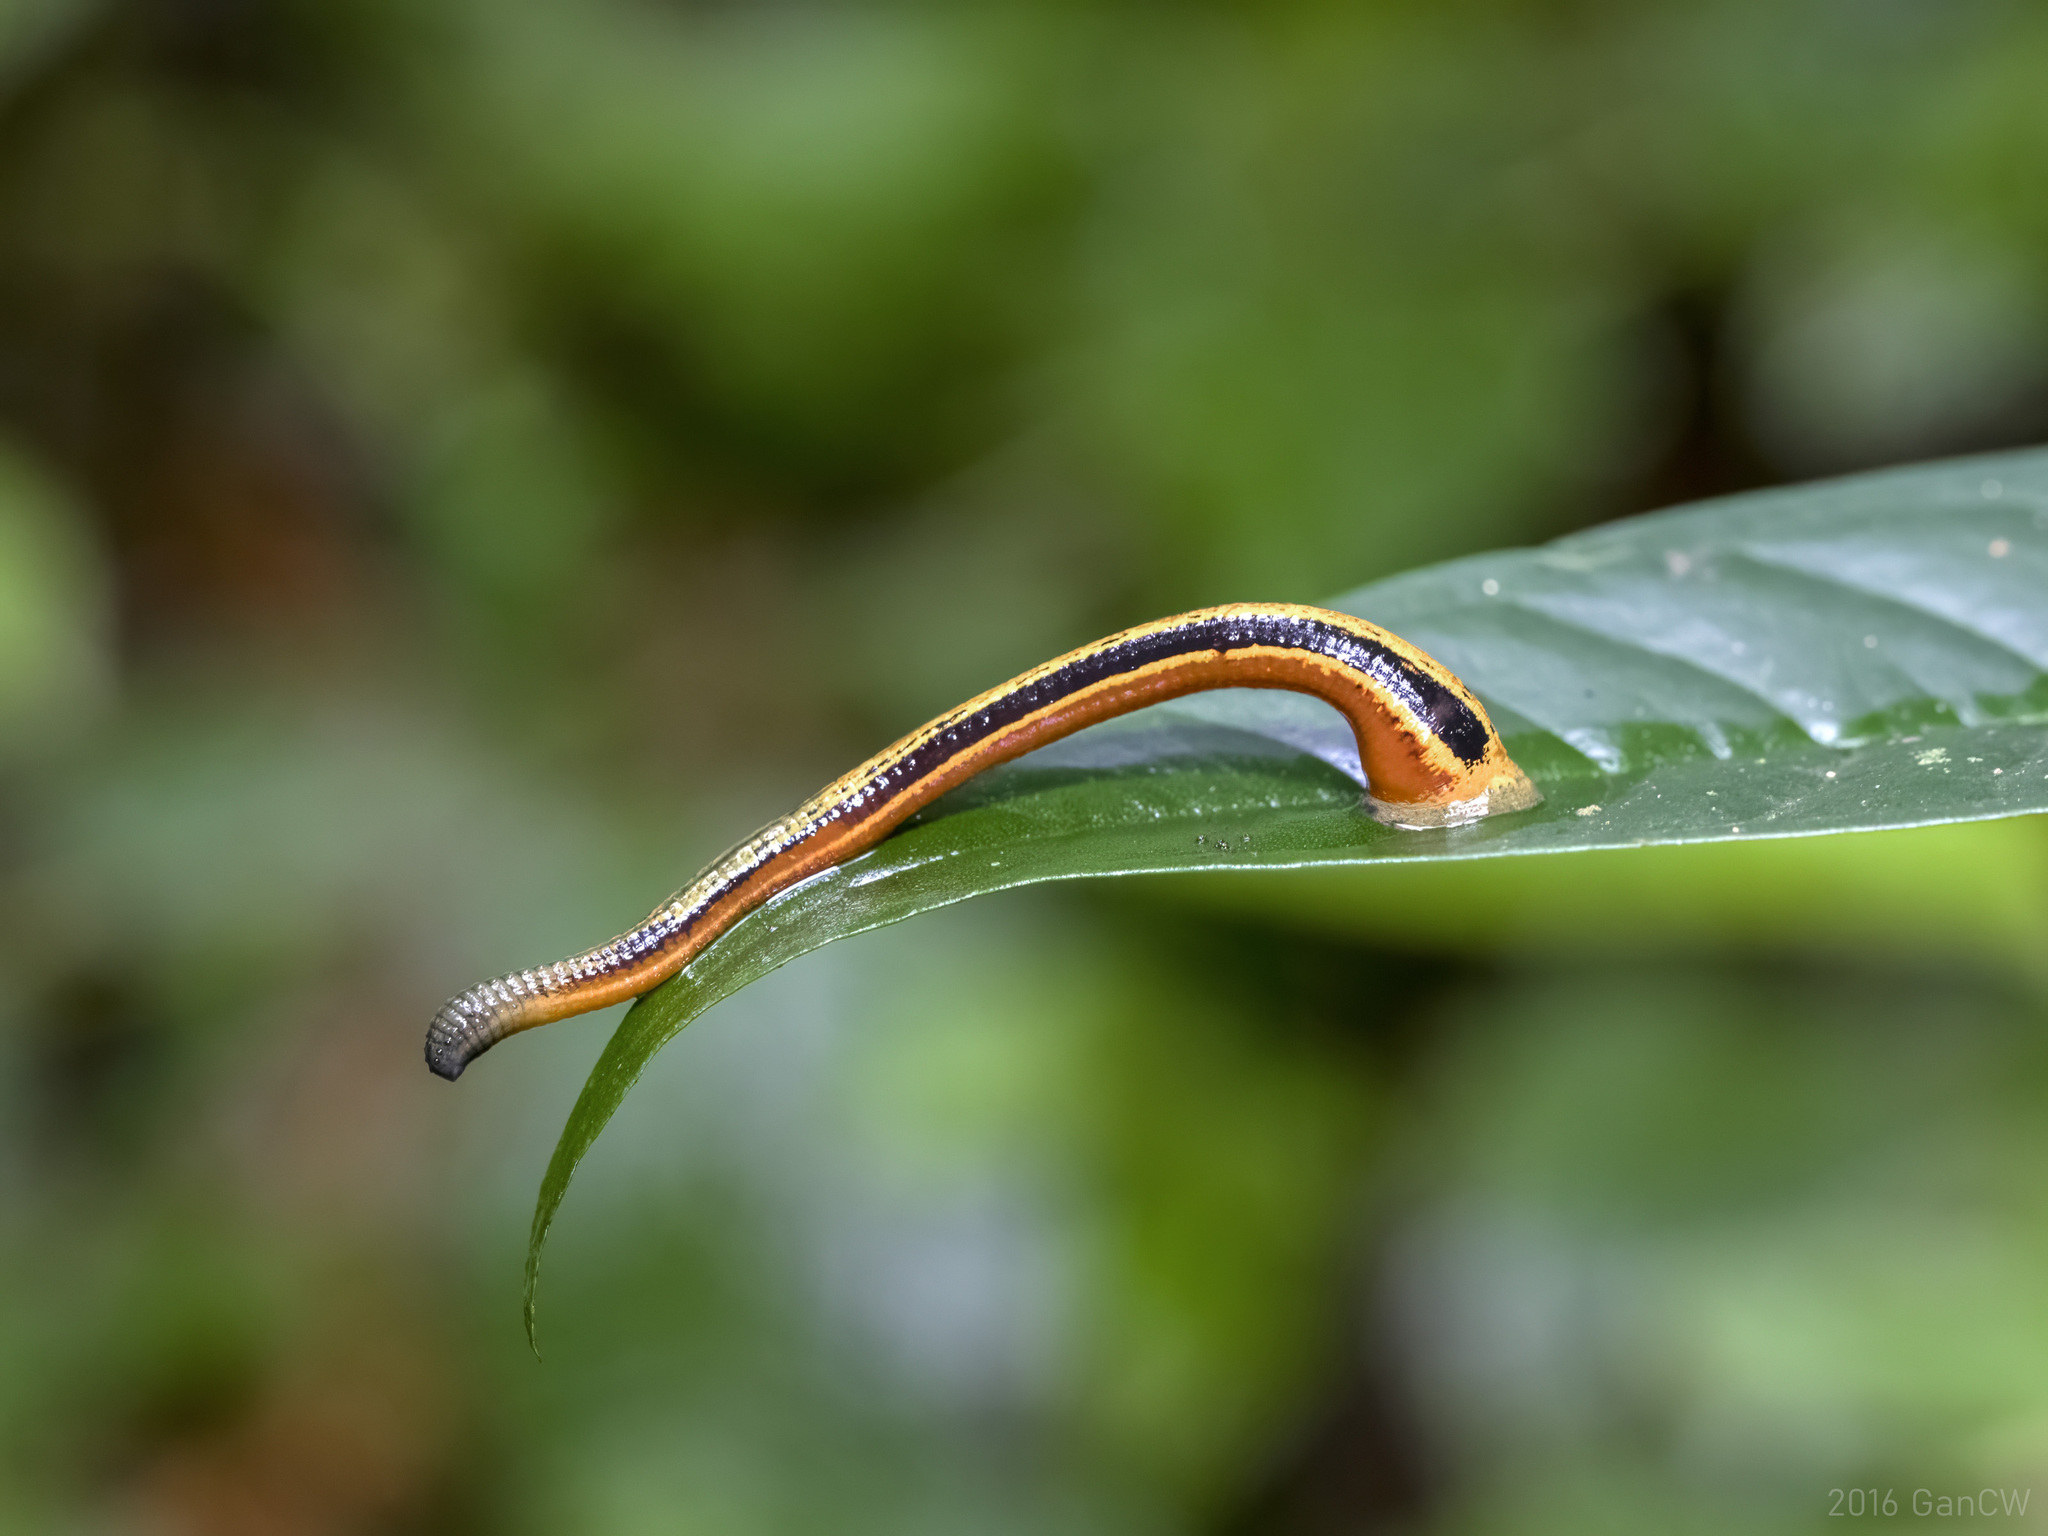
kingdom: Animalia
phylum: Annelida
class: Clitellata
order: Arhynchobdellida
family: Haemadipsidae
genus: Haemadipsa
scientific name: Haemadipsa picta
